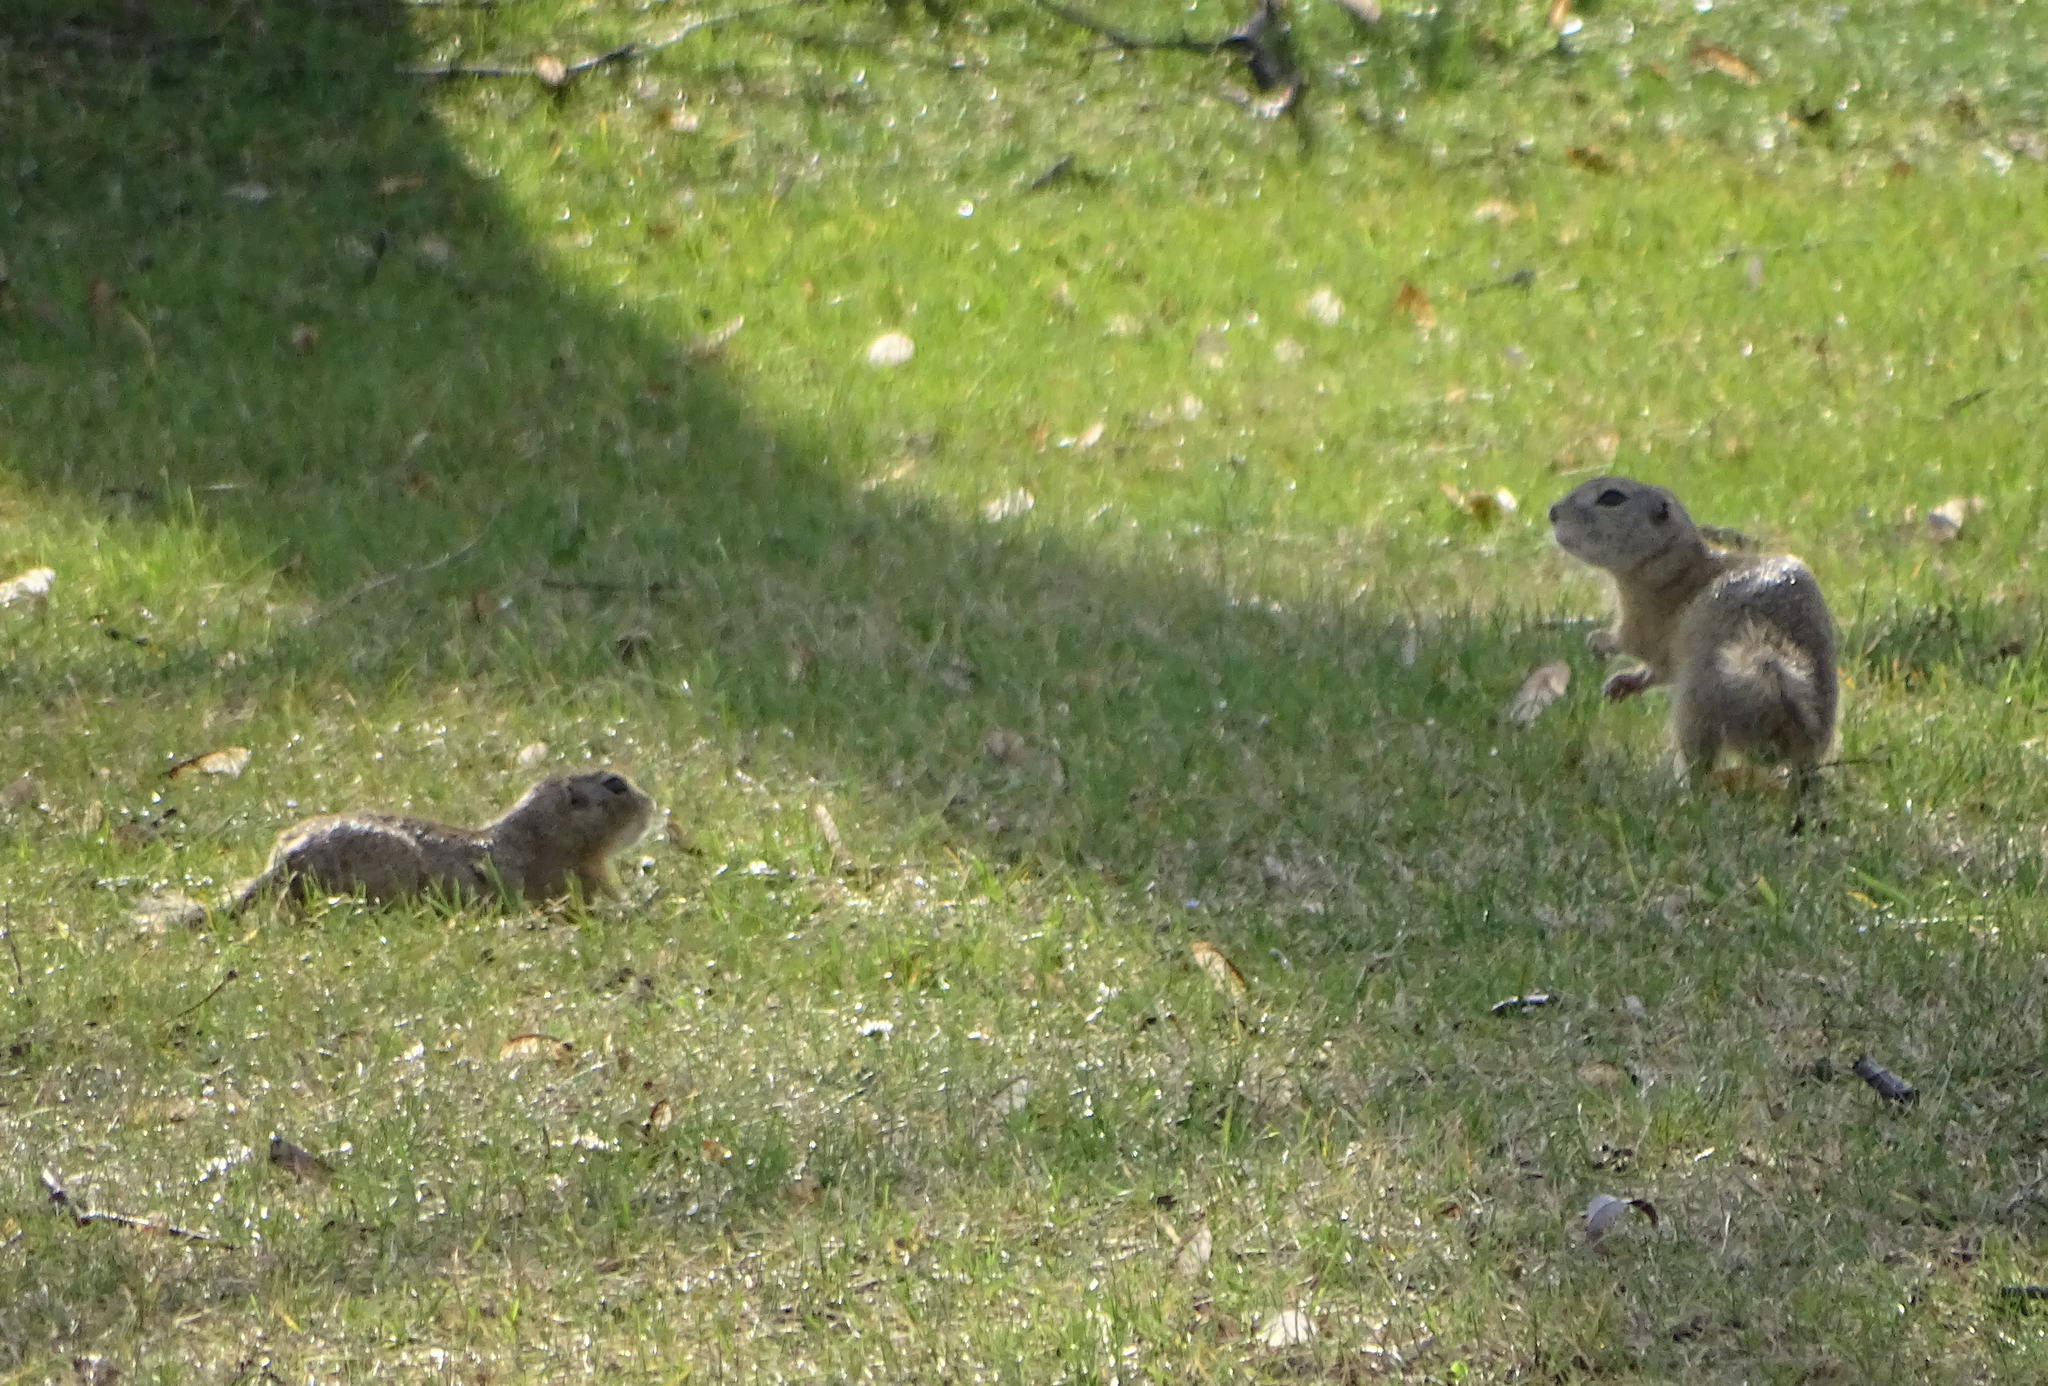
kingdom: Animalia
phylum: Chordata
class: Mammalia
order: Rodentia
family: Sciuridae
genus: Spermophilus
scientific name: Spermophilus citellus
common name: European ground squirrel
